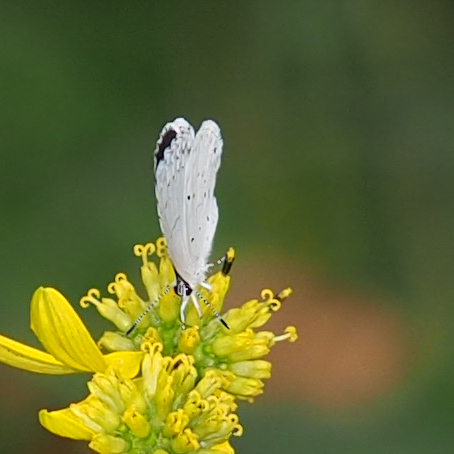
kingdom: Animalia
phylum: Arthropoda
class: Insecta
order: Lepidoptera
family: Lycaenidae
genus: Cyaniris
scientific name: Cyaniris neglecta
